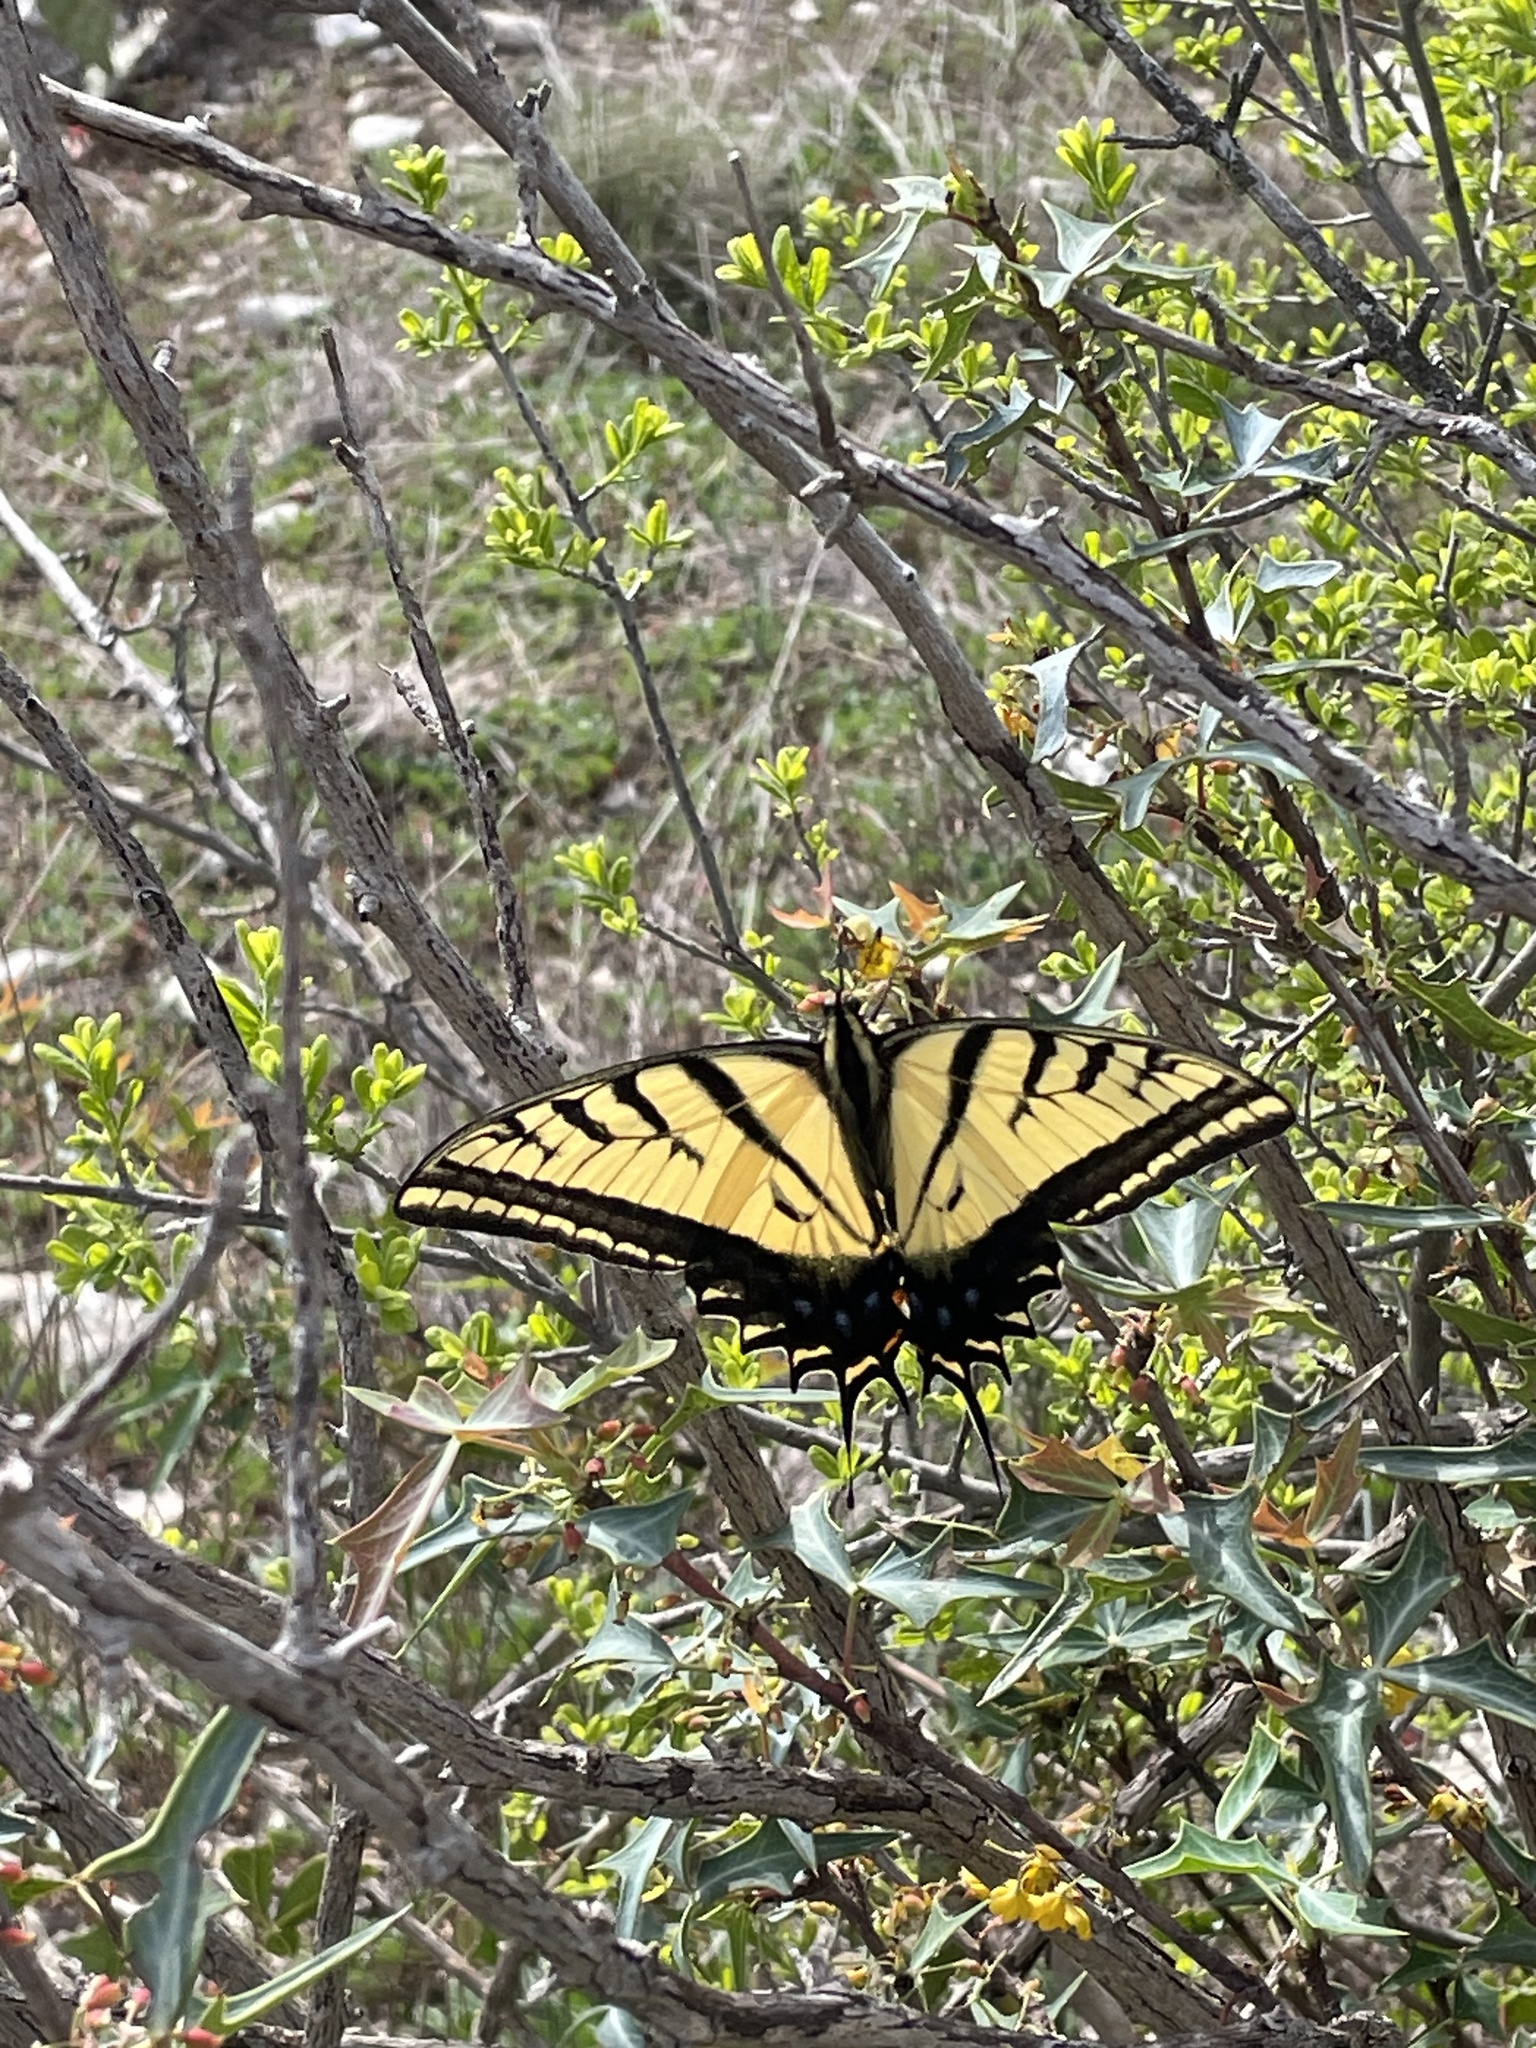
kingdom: Animalia
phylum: Arthropoda
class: Insecta
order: Lepidoptera
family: Papilionidae
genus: Papilio
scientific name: Papilio multicaudata
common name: Two-tailed tiger swallowtail
